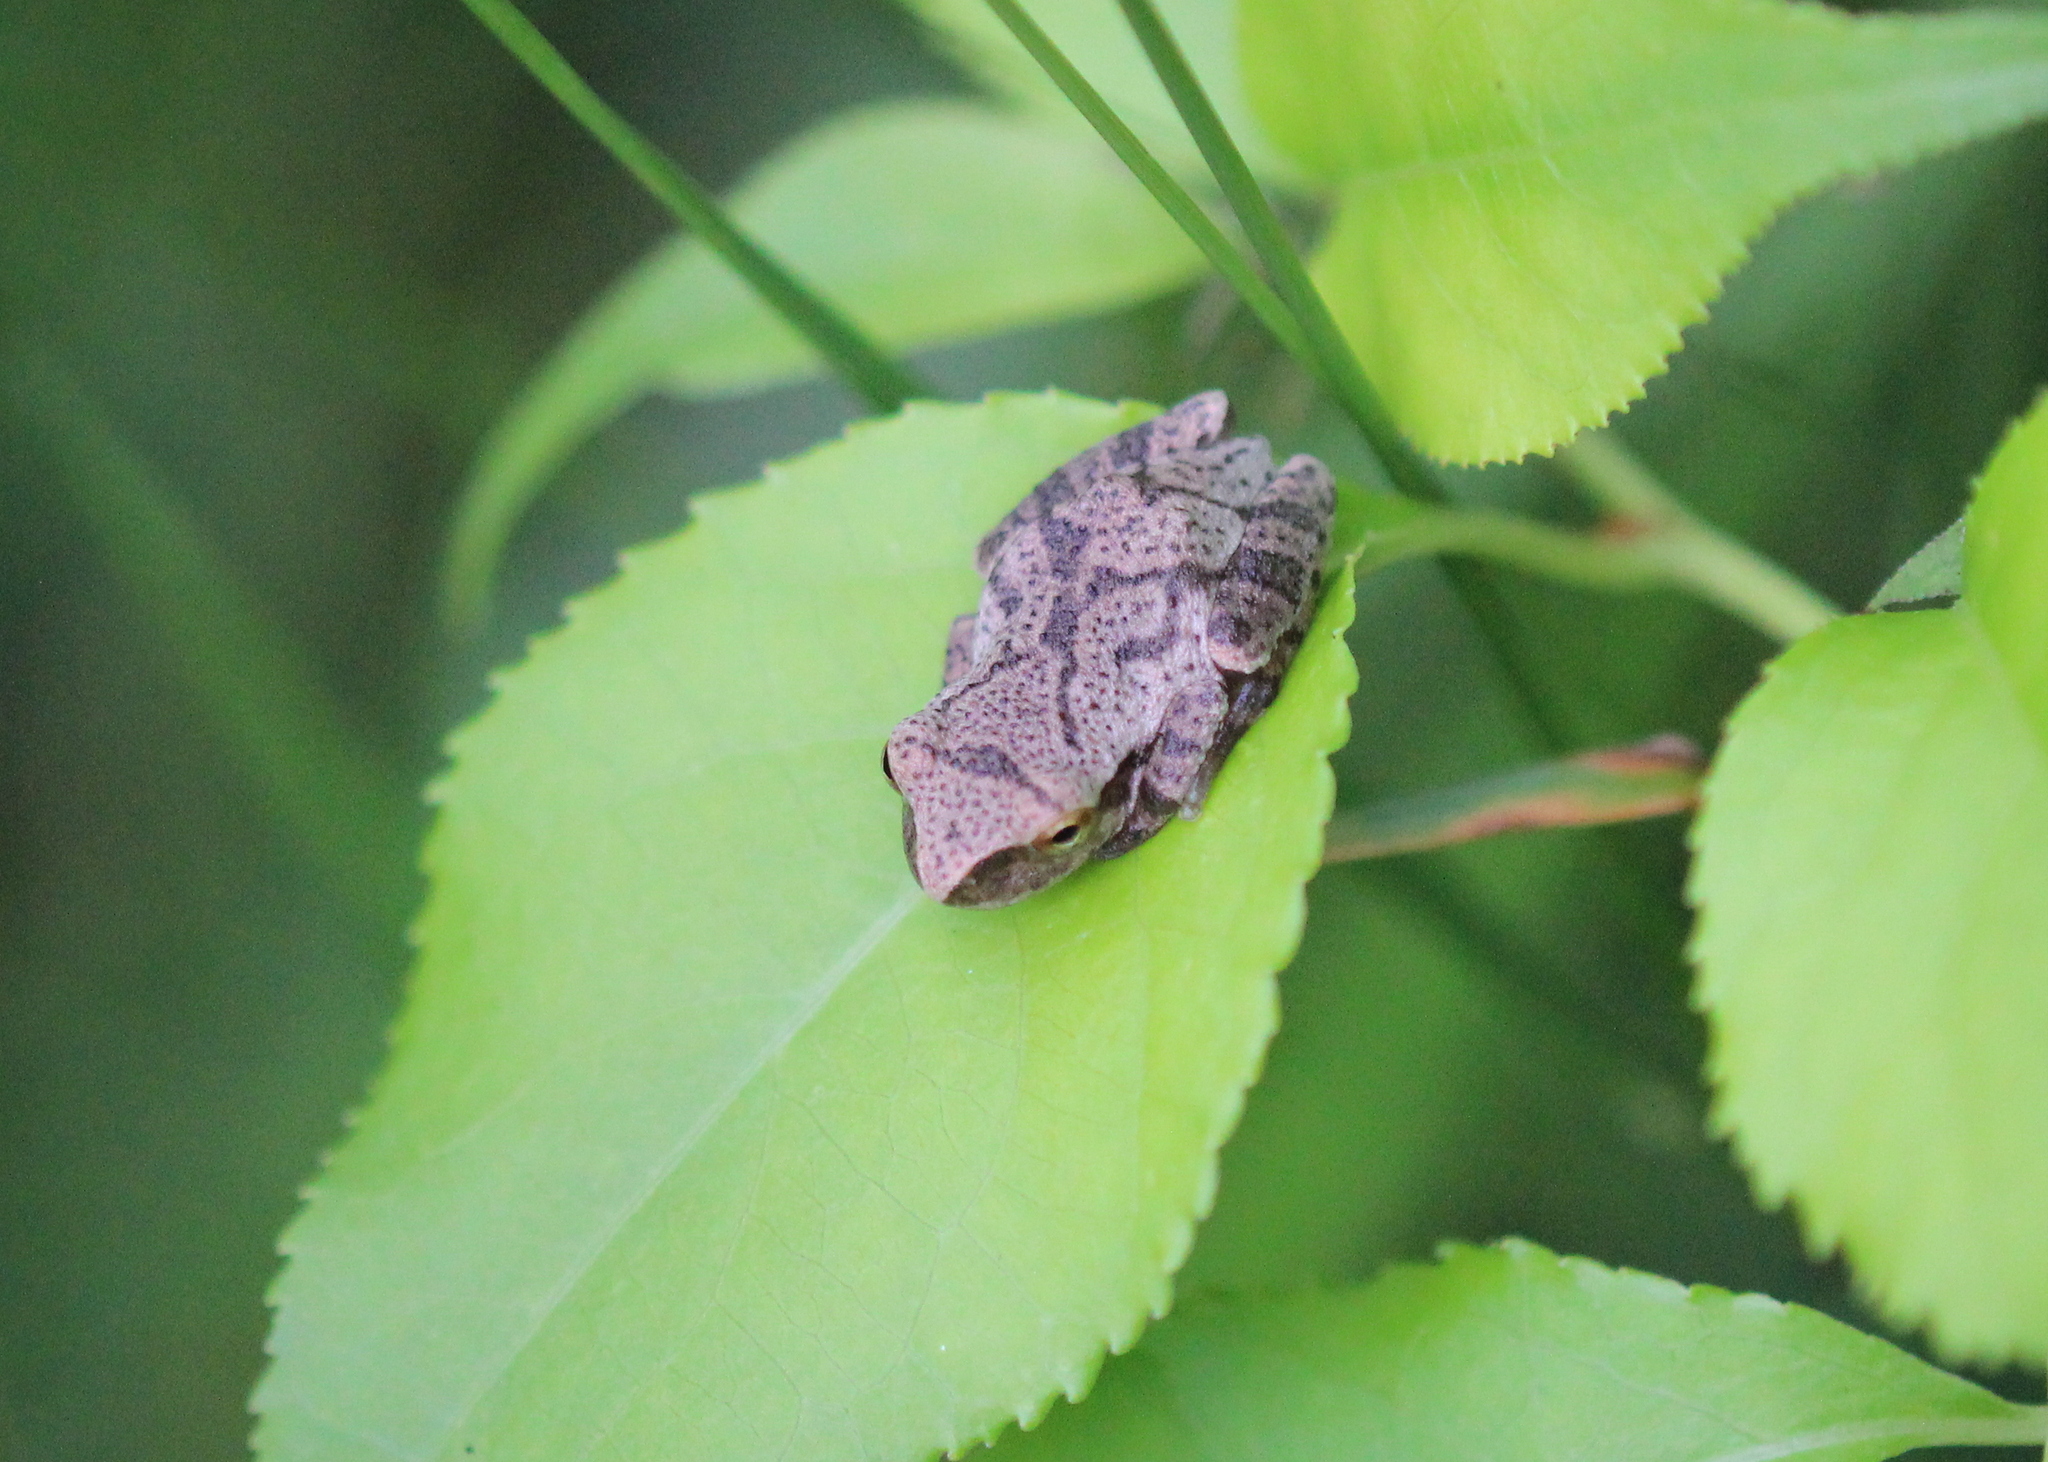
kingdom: Animalia
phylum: Chordata
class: Amphibia
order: Anura
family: Hylidae
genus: Pseudacris
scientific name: Pseudacris crucifer
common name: Spring peeper
